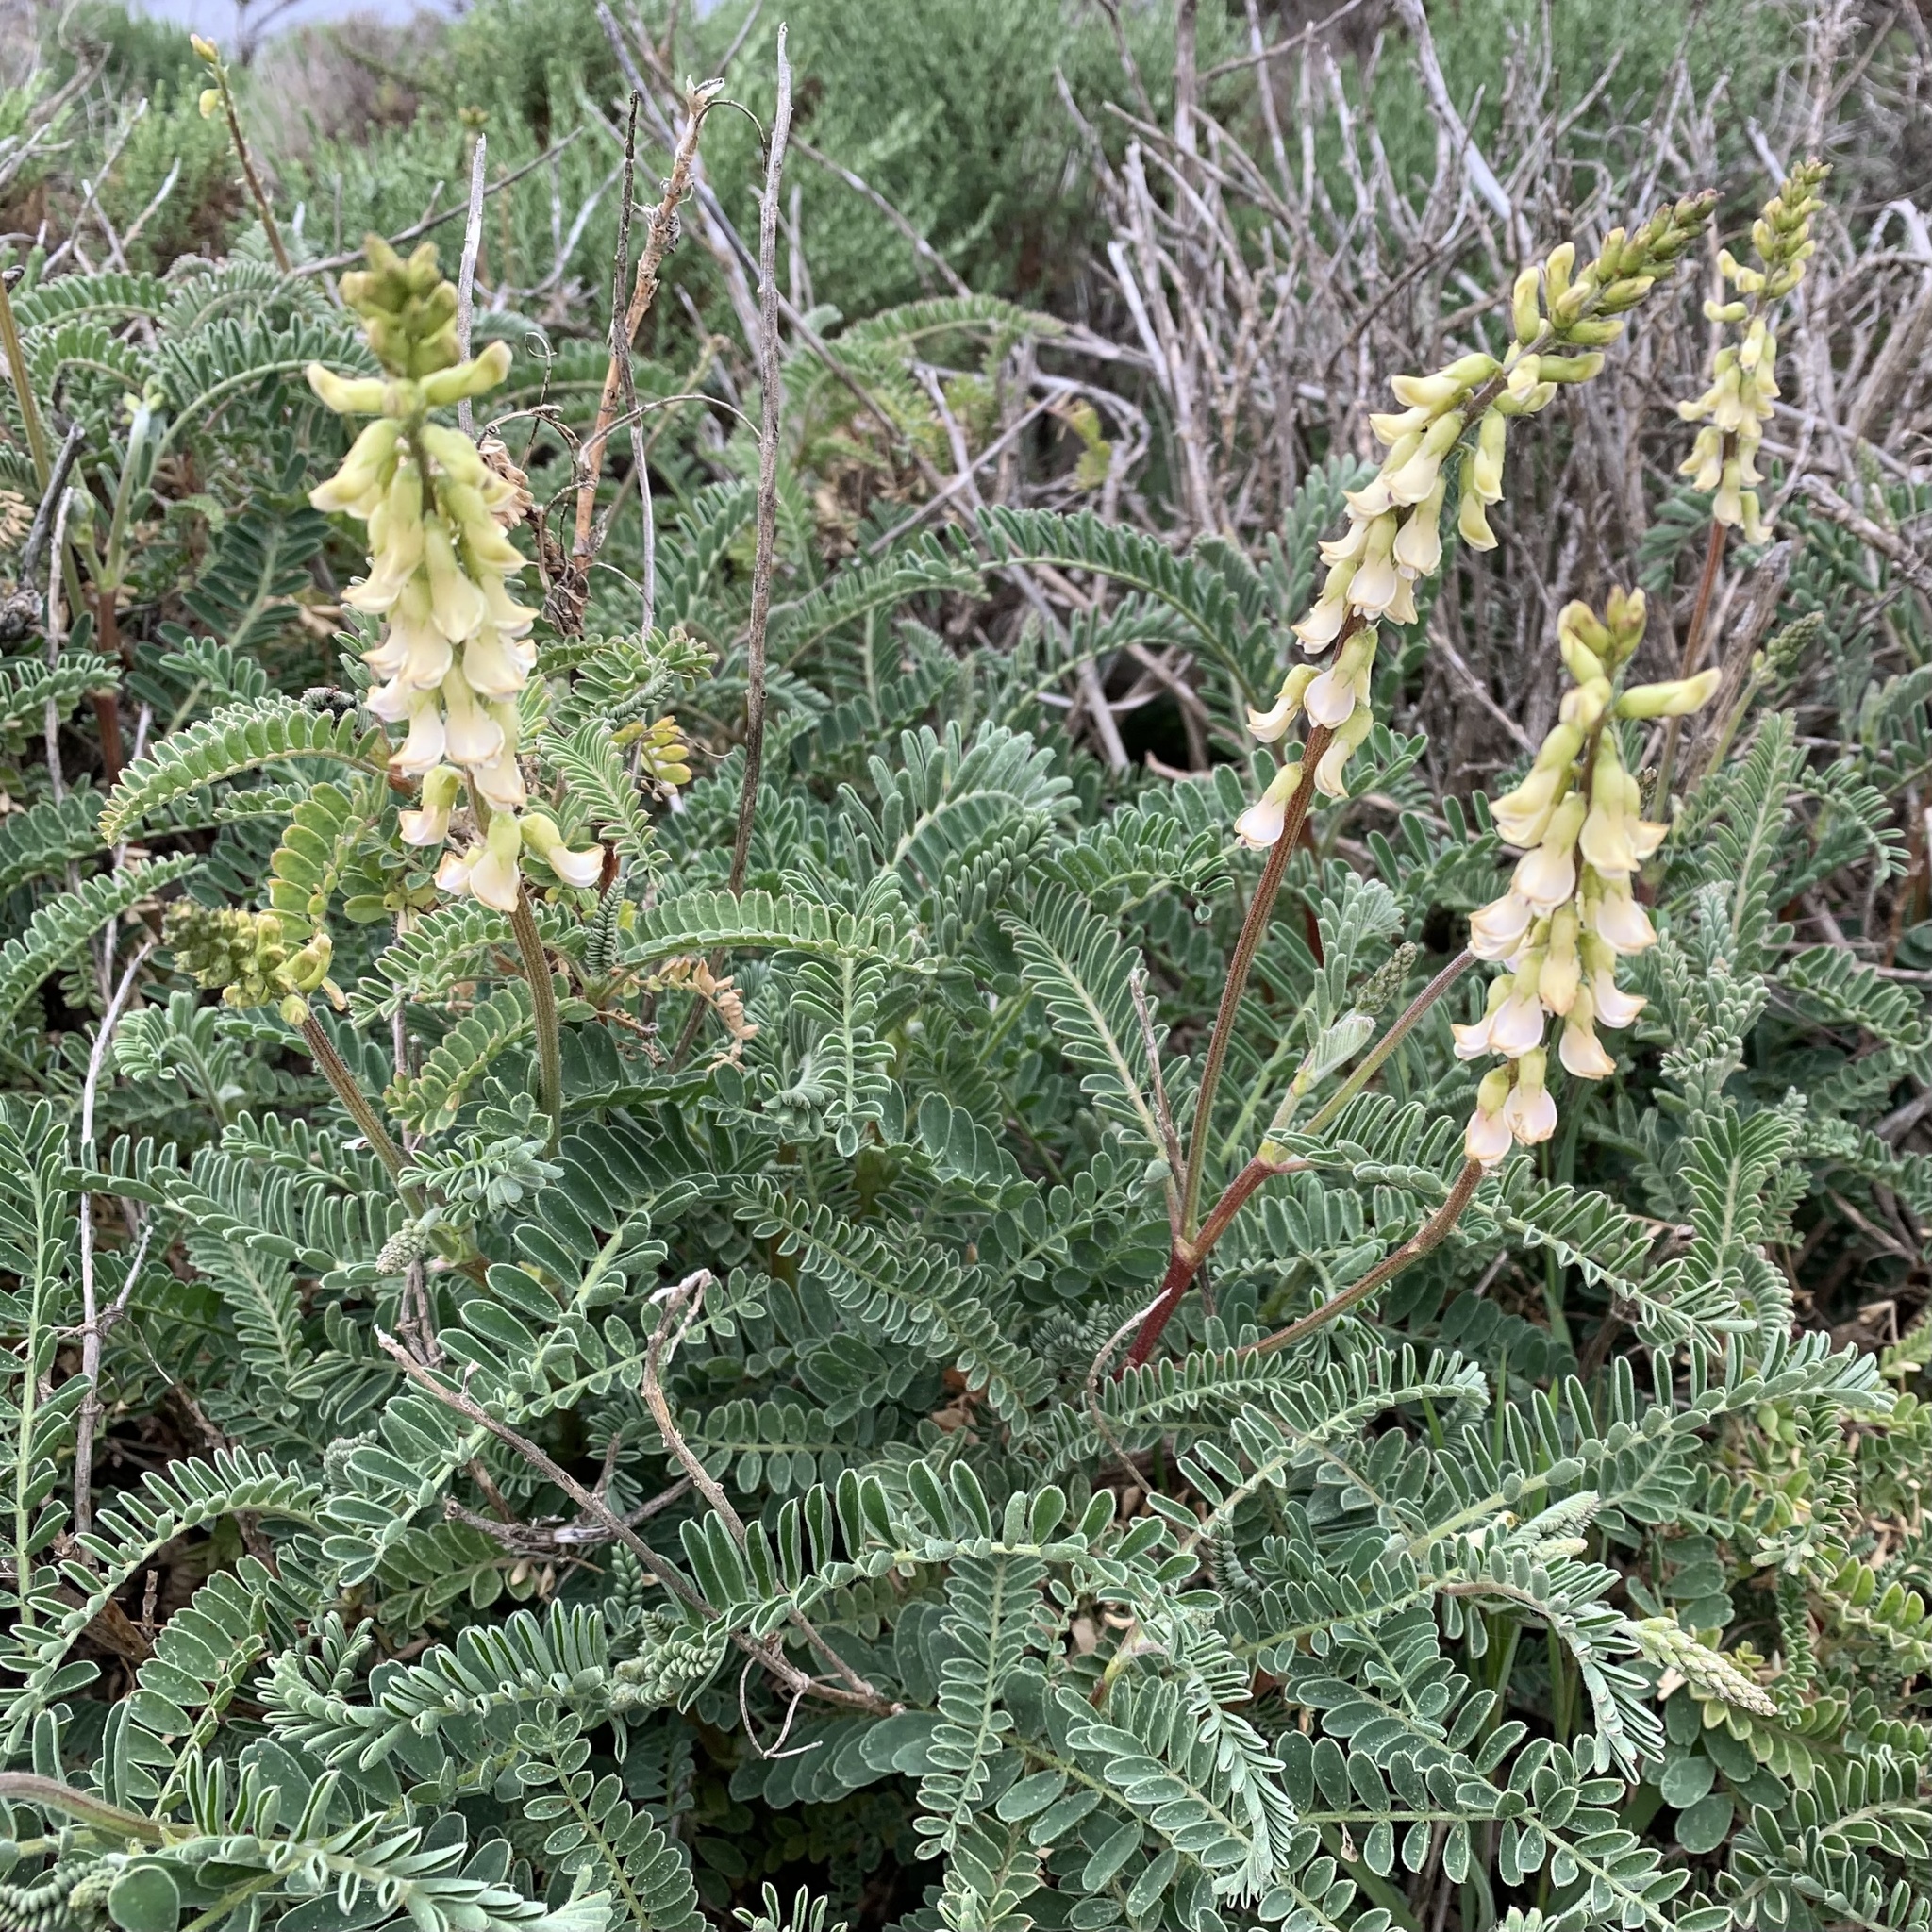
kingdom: Plantae
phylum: Tracheophyta
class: Magnoliopsida
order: Fabales
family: Fabaceae
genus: Astragalus
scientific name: Astragalus nuttallii
